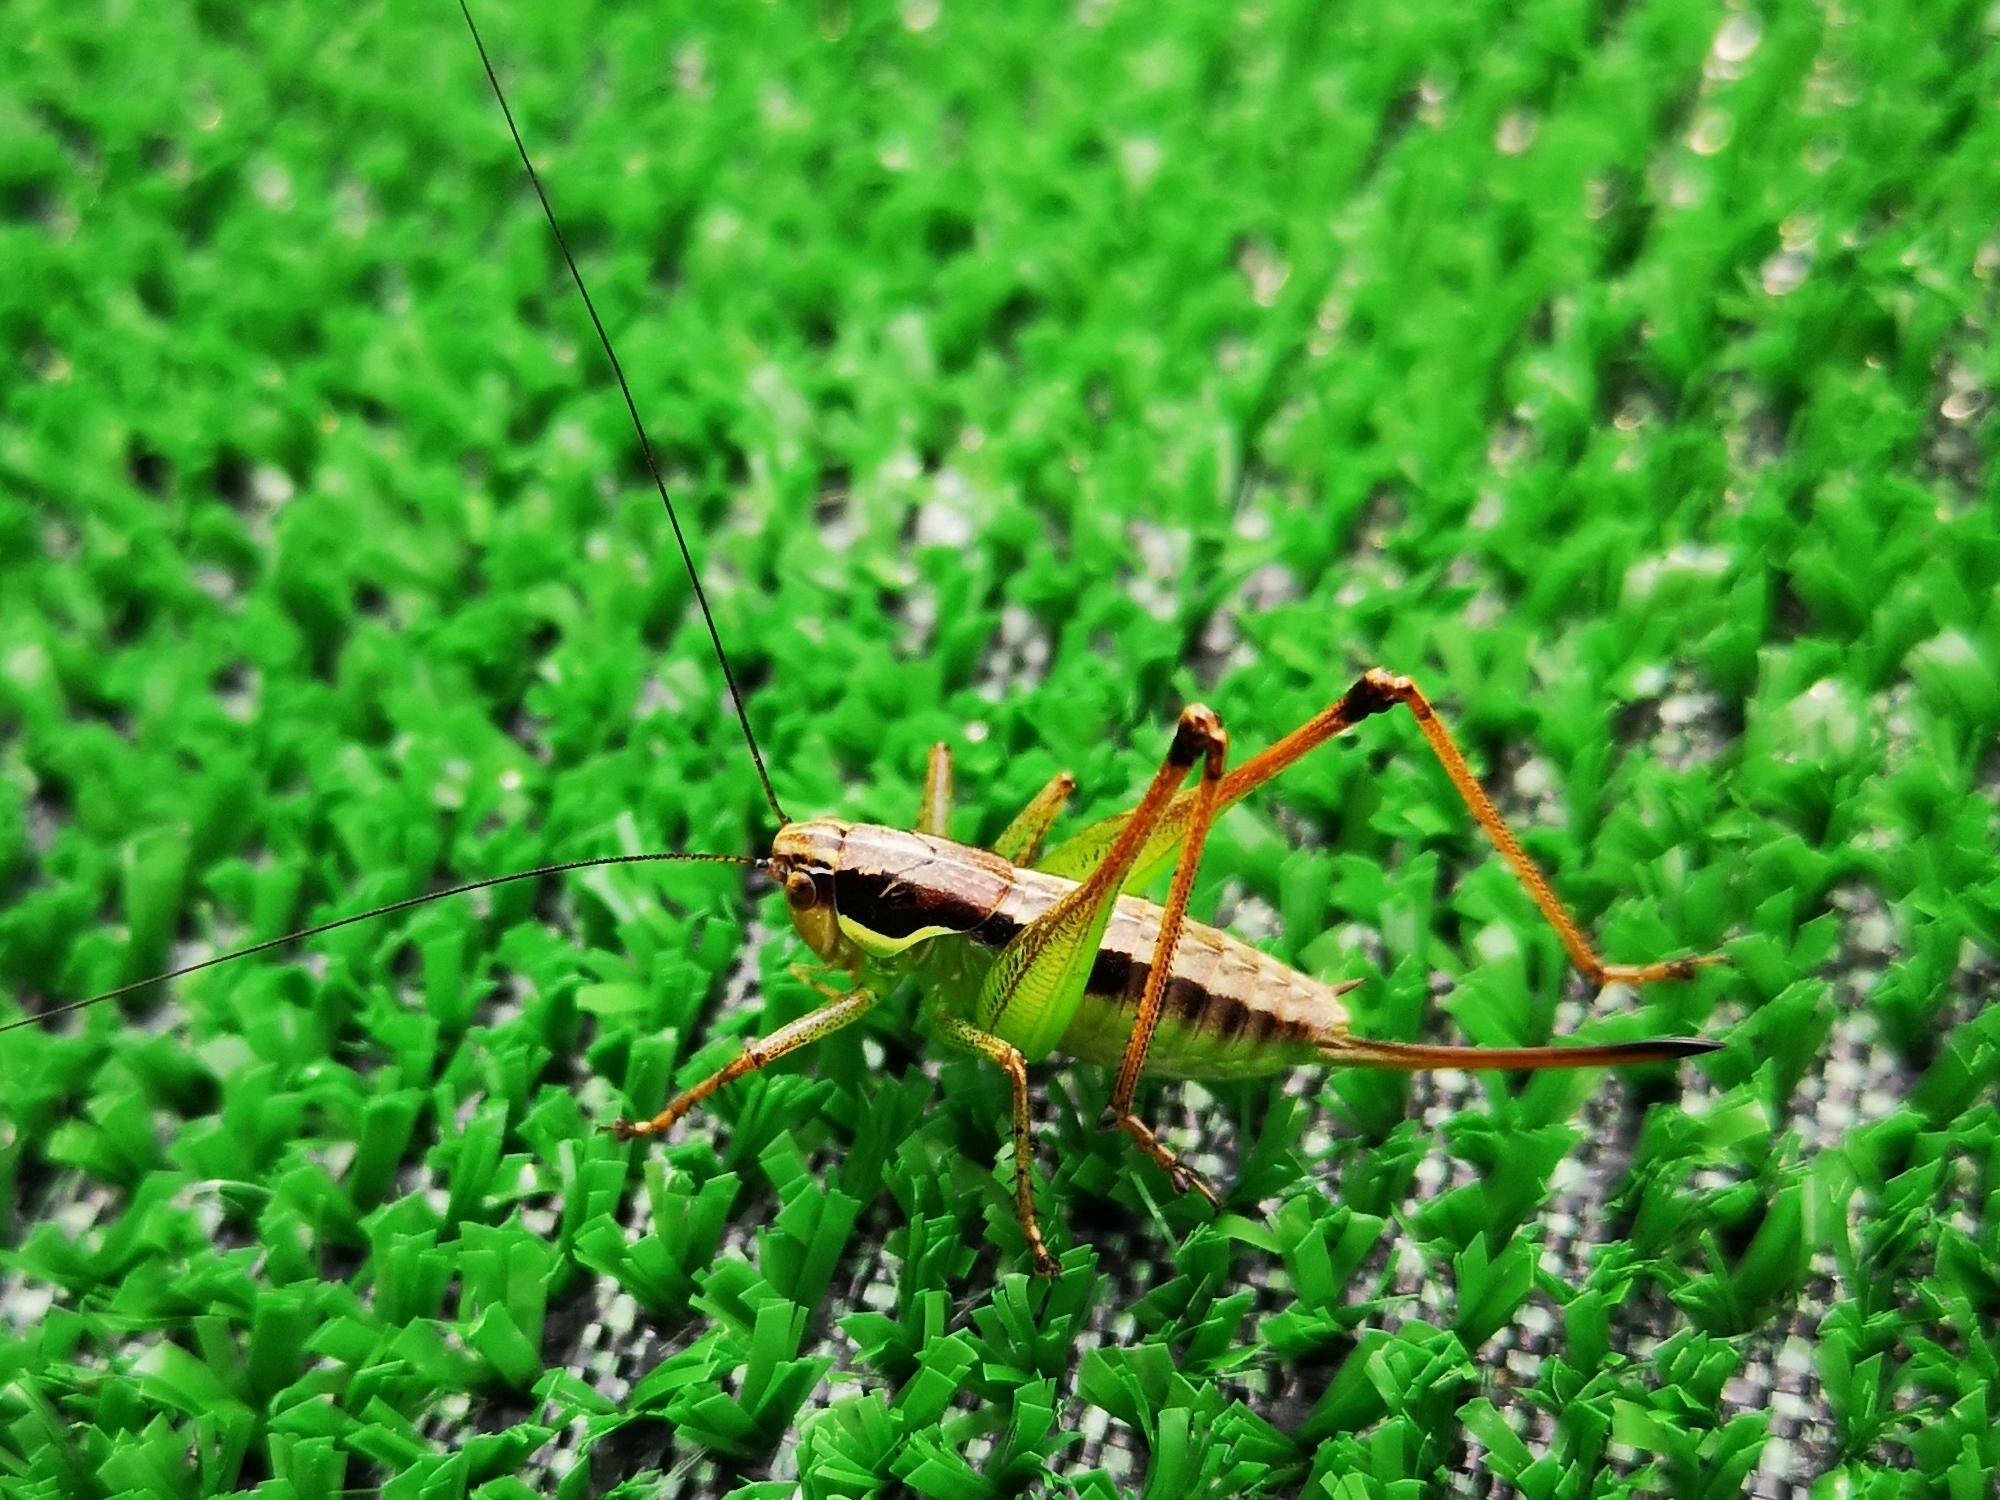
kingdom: Animalia
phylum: Arthropoda
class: Insecta
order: Orthoptera
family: Tettigoniidae
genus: Pachytrachis
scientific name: Pachytrachis gracilis
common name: Graceful bush-cricket
